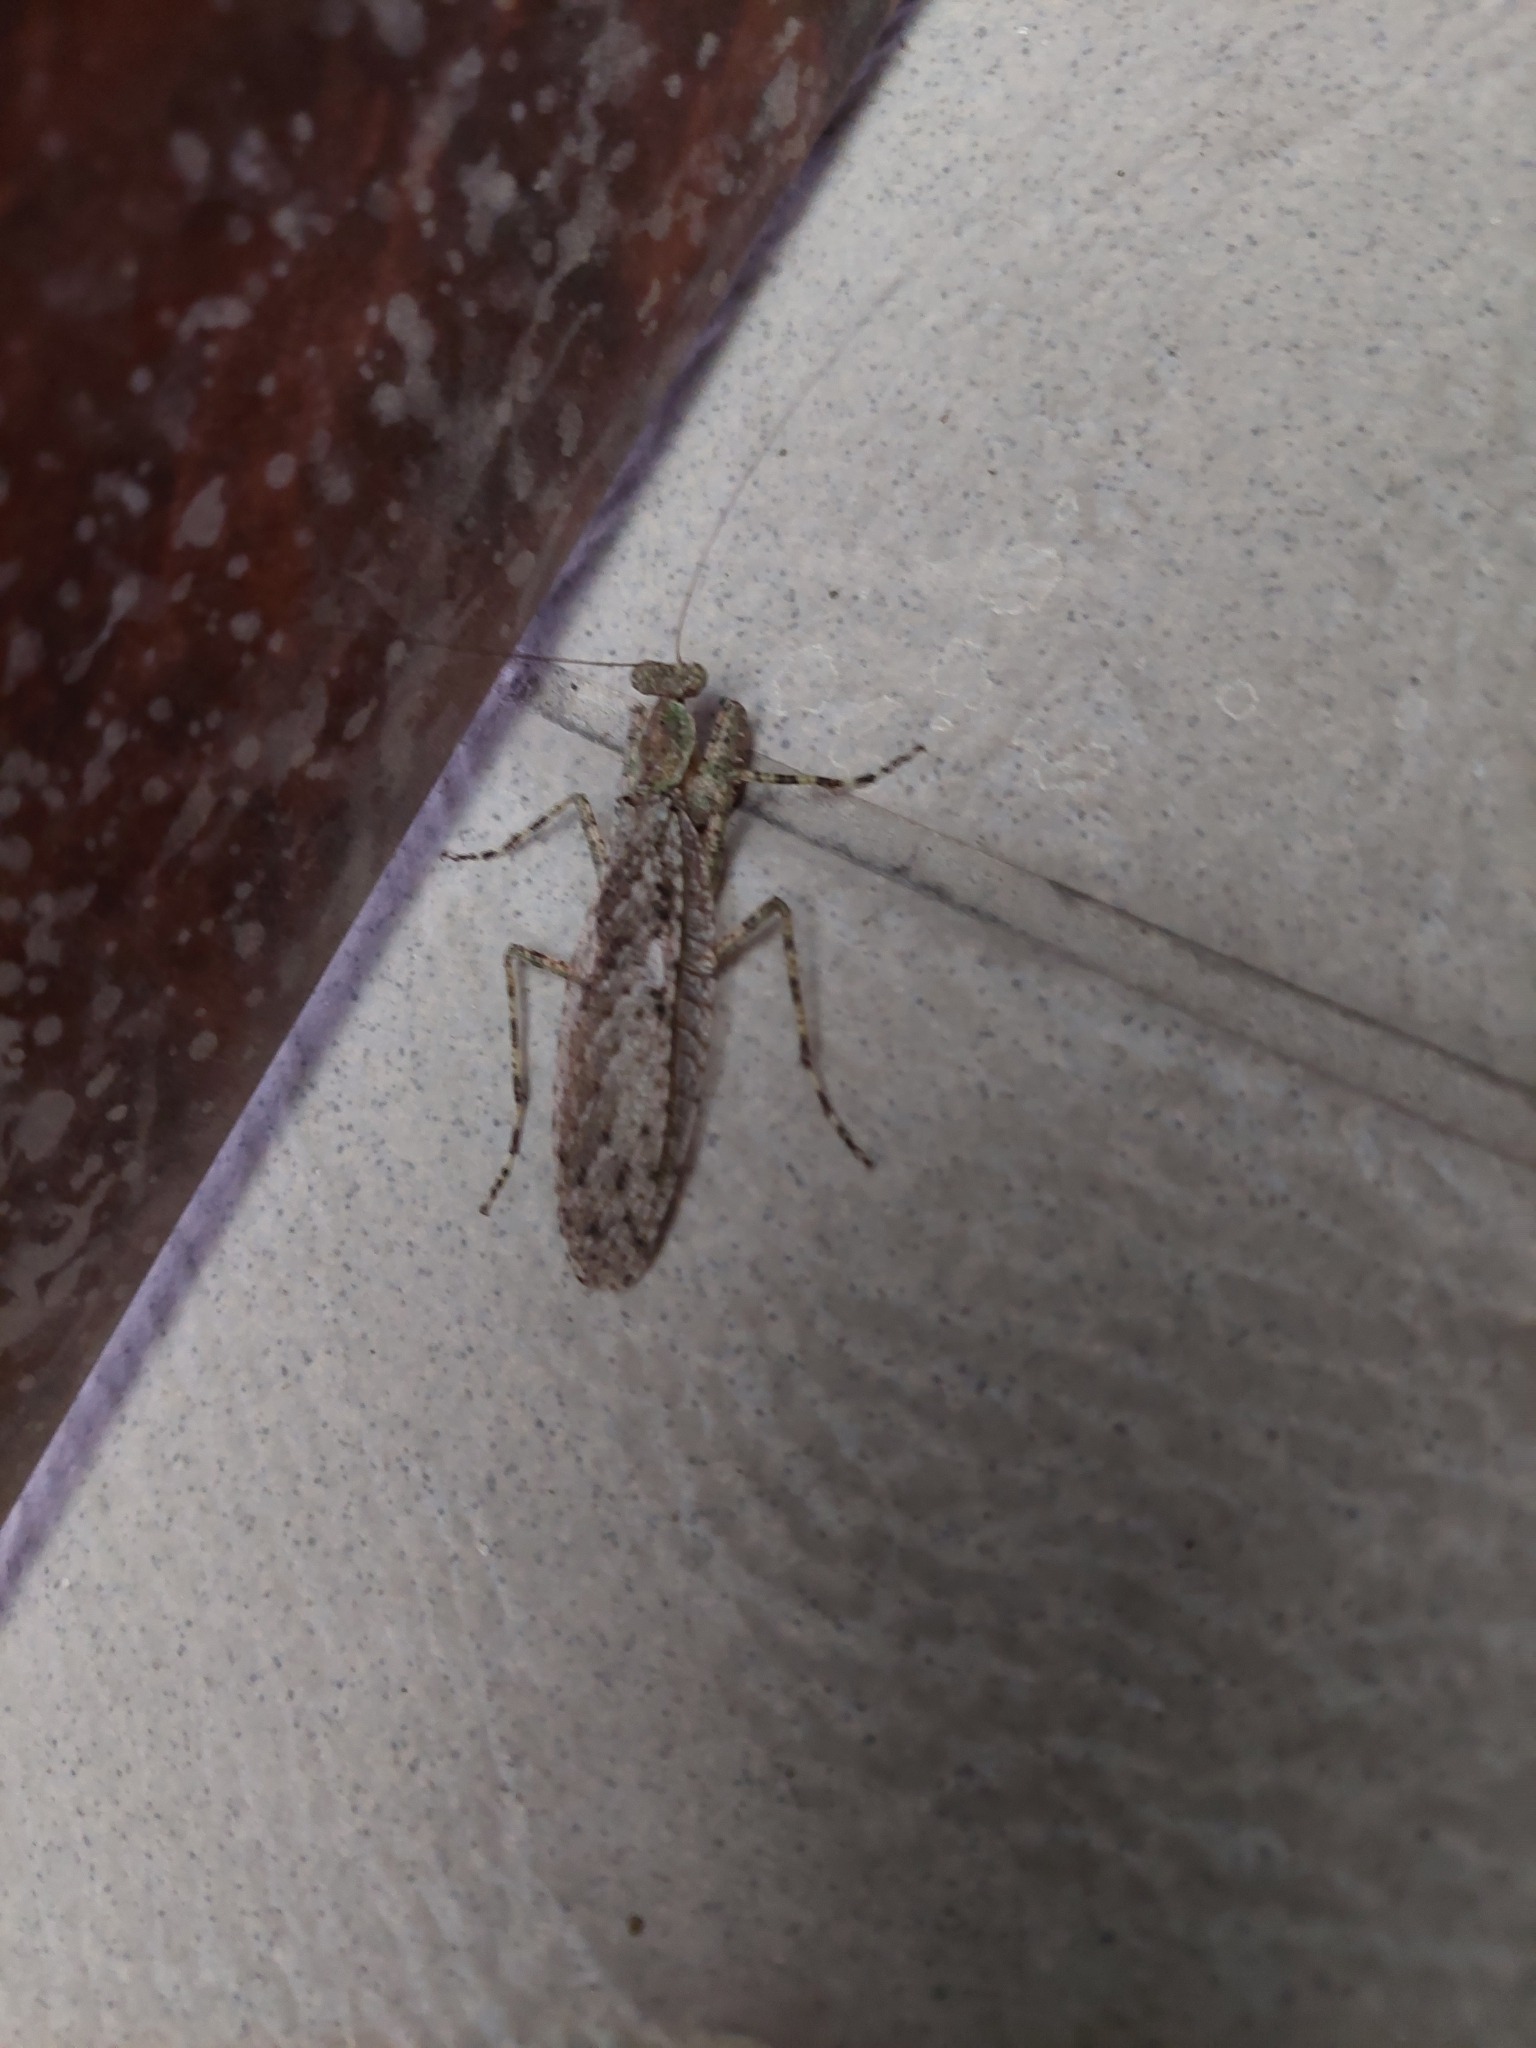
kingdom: Animalia
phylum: Arthropoda
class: Insecta
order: Mantodea
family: Gonypetidae
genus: Theopompa
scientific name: Theopompa ophthalmica
